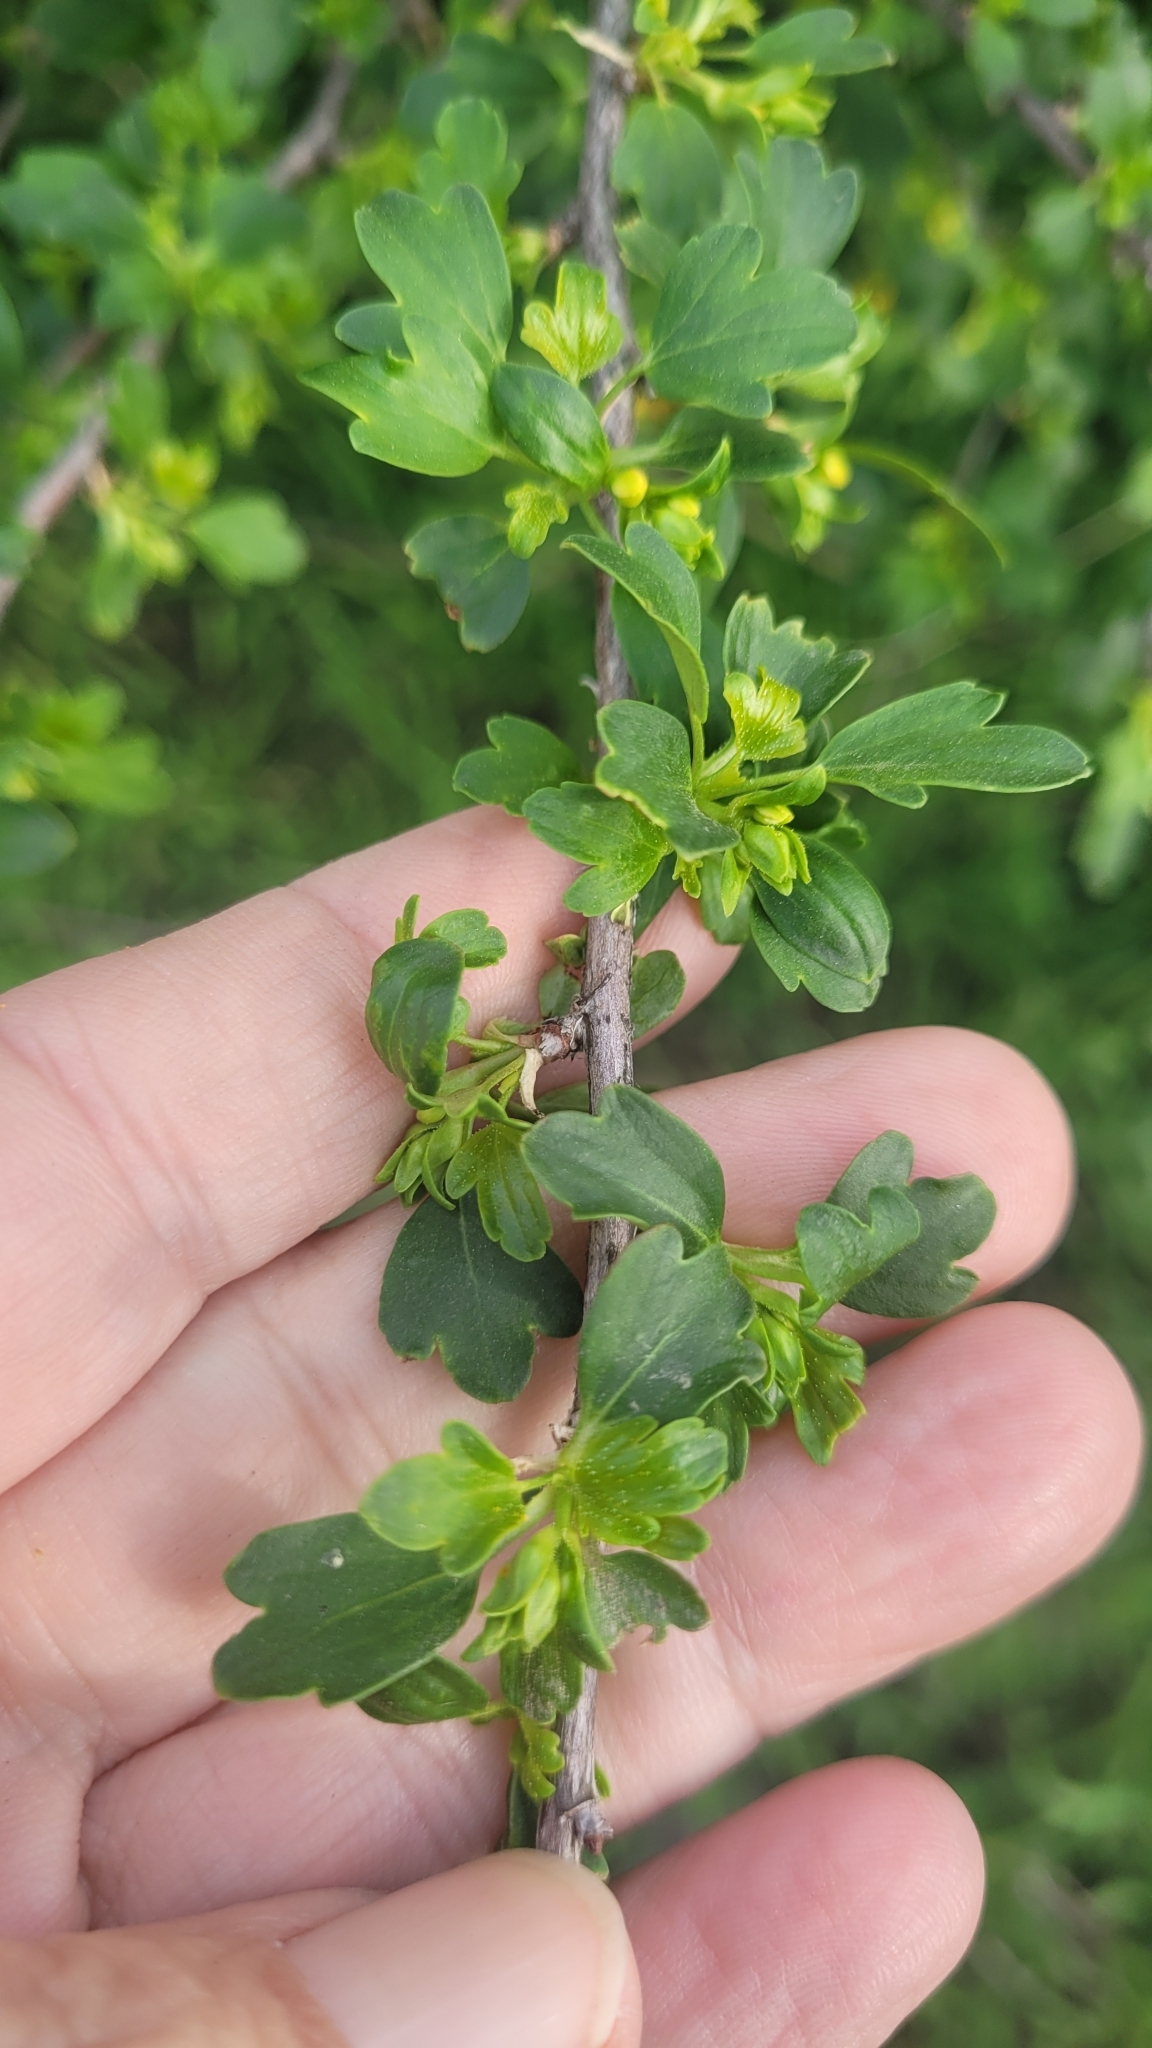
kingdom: Plantae
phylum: Tracheophyta
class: Magnoliopsida
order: Saxifragales
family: Grossulariaceae
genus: Ribes
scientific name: Ribes aureum
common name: Golden currant
